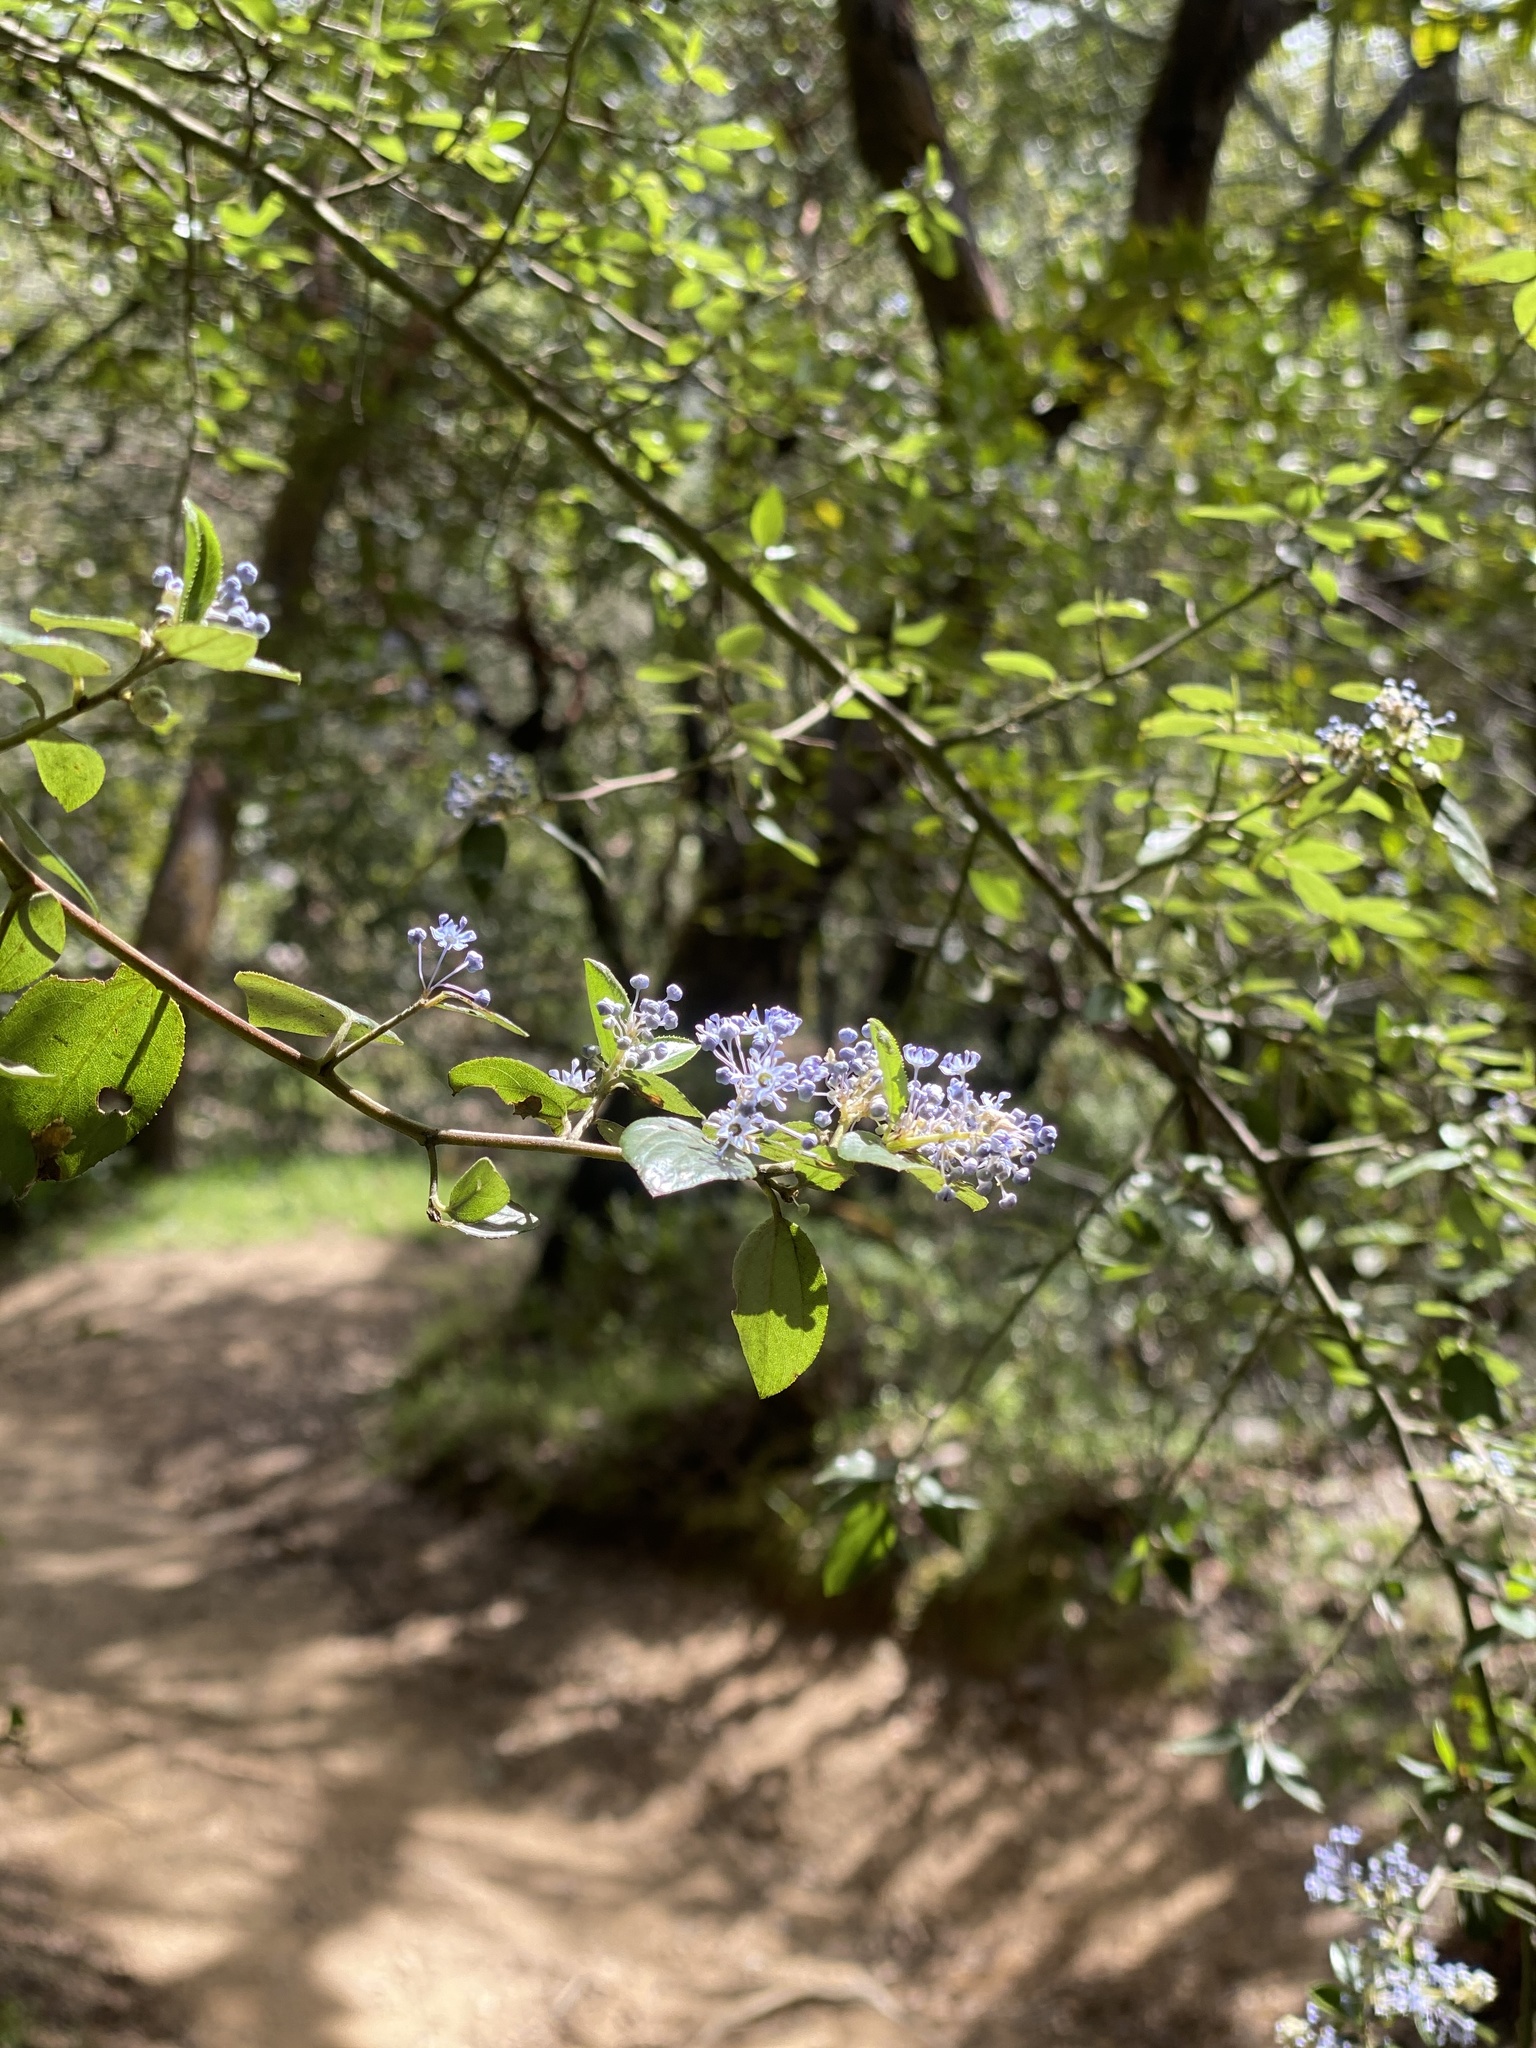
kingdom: Plantae
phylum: Tracheophyta
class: Magnoliopsida
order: Rosales
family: Rhamnaceae
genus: Ceanothus
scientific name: Ceanothus sorediatus
